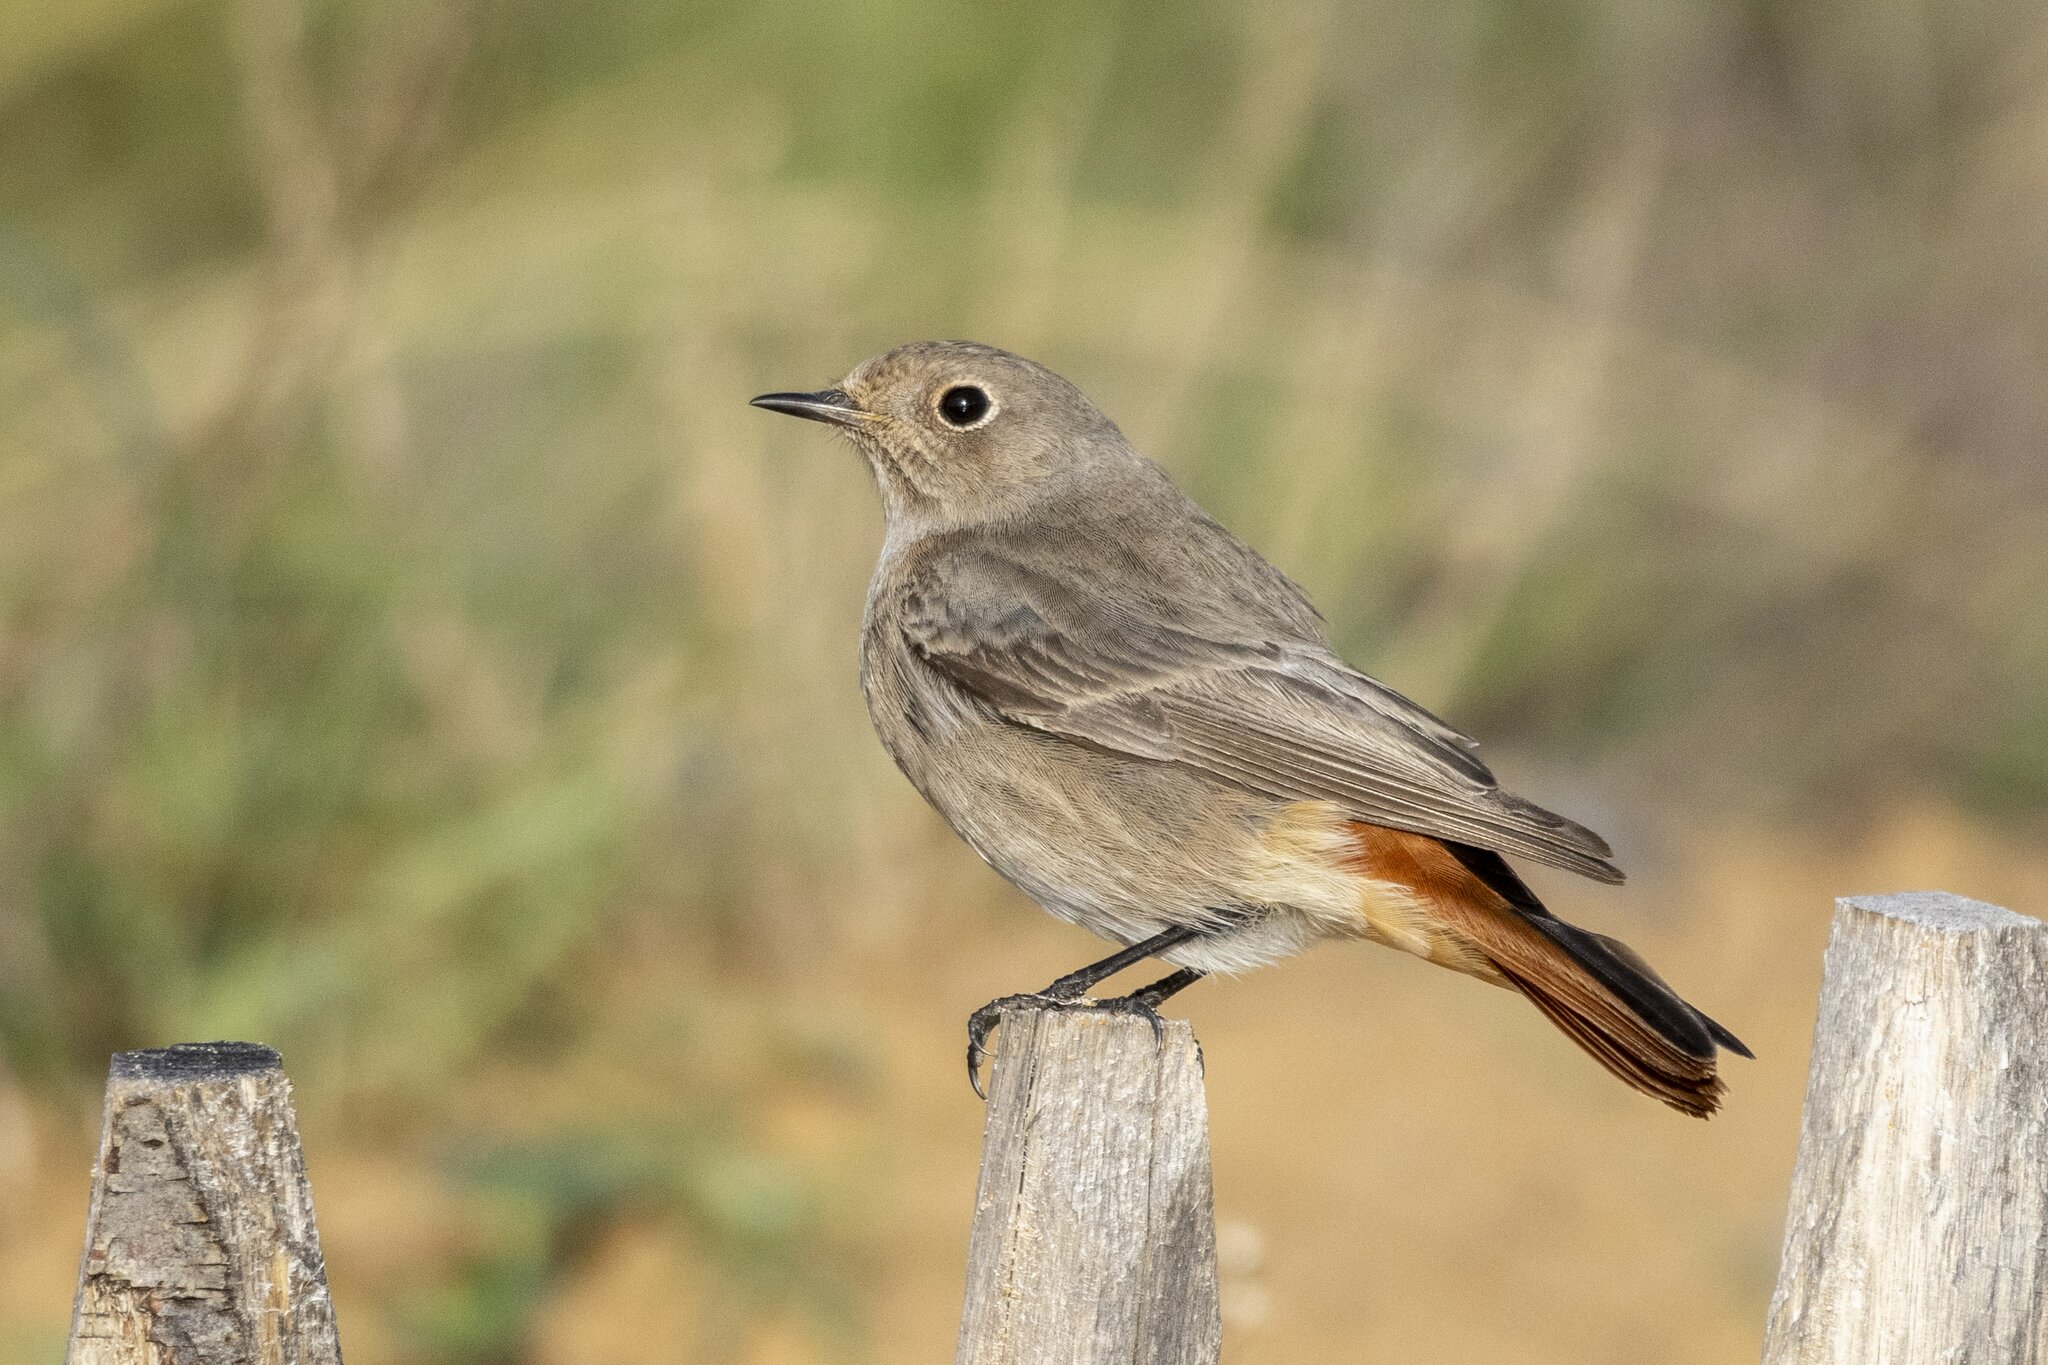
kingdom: Animalia
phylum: Chordata
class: Aves
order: Passeriformes
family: Muscicapidae
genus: Phoenicurus
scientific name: Phoenicurus ochruros
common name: Black redstart
